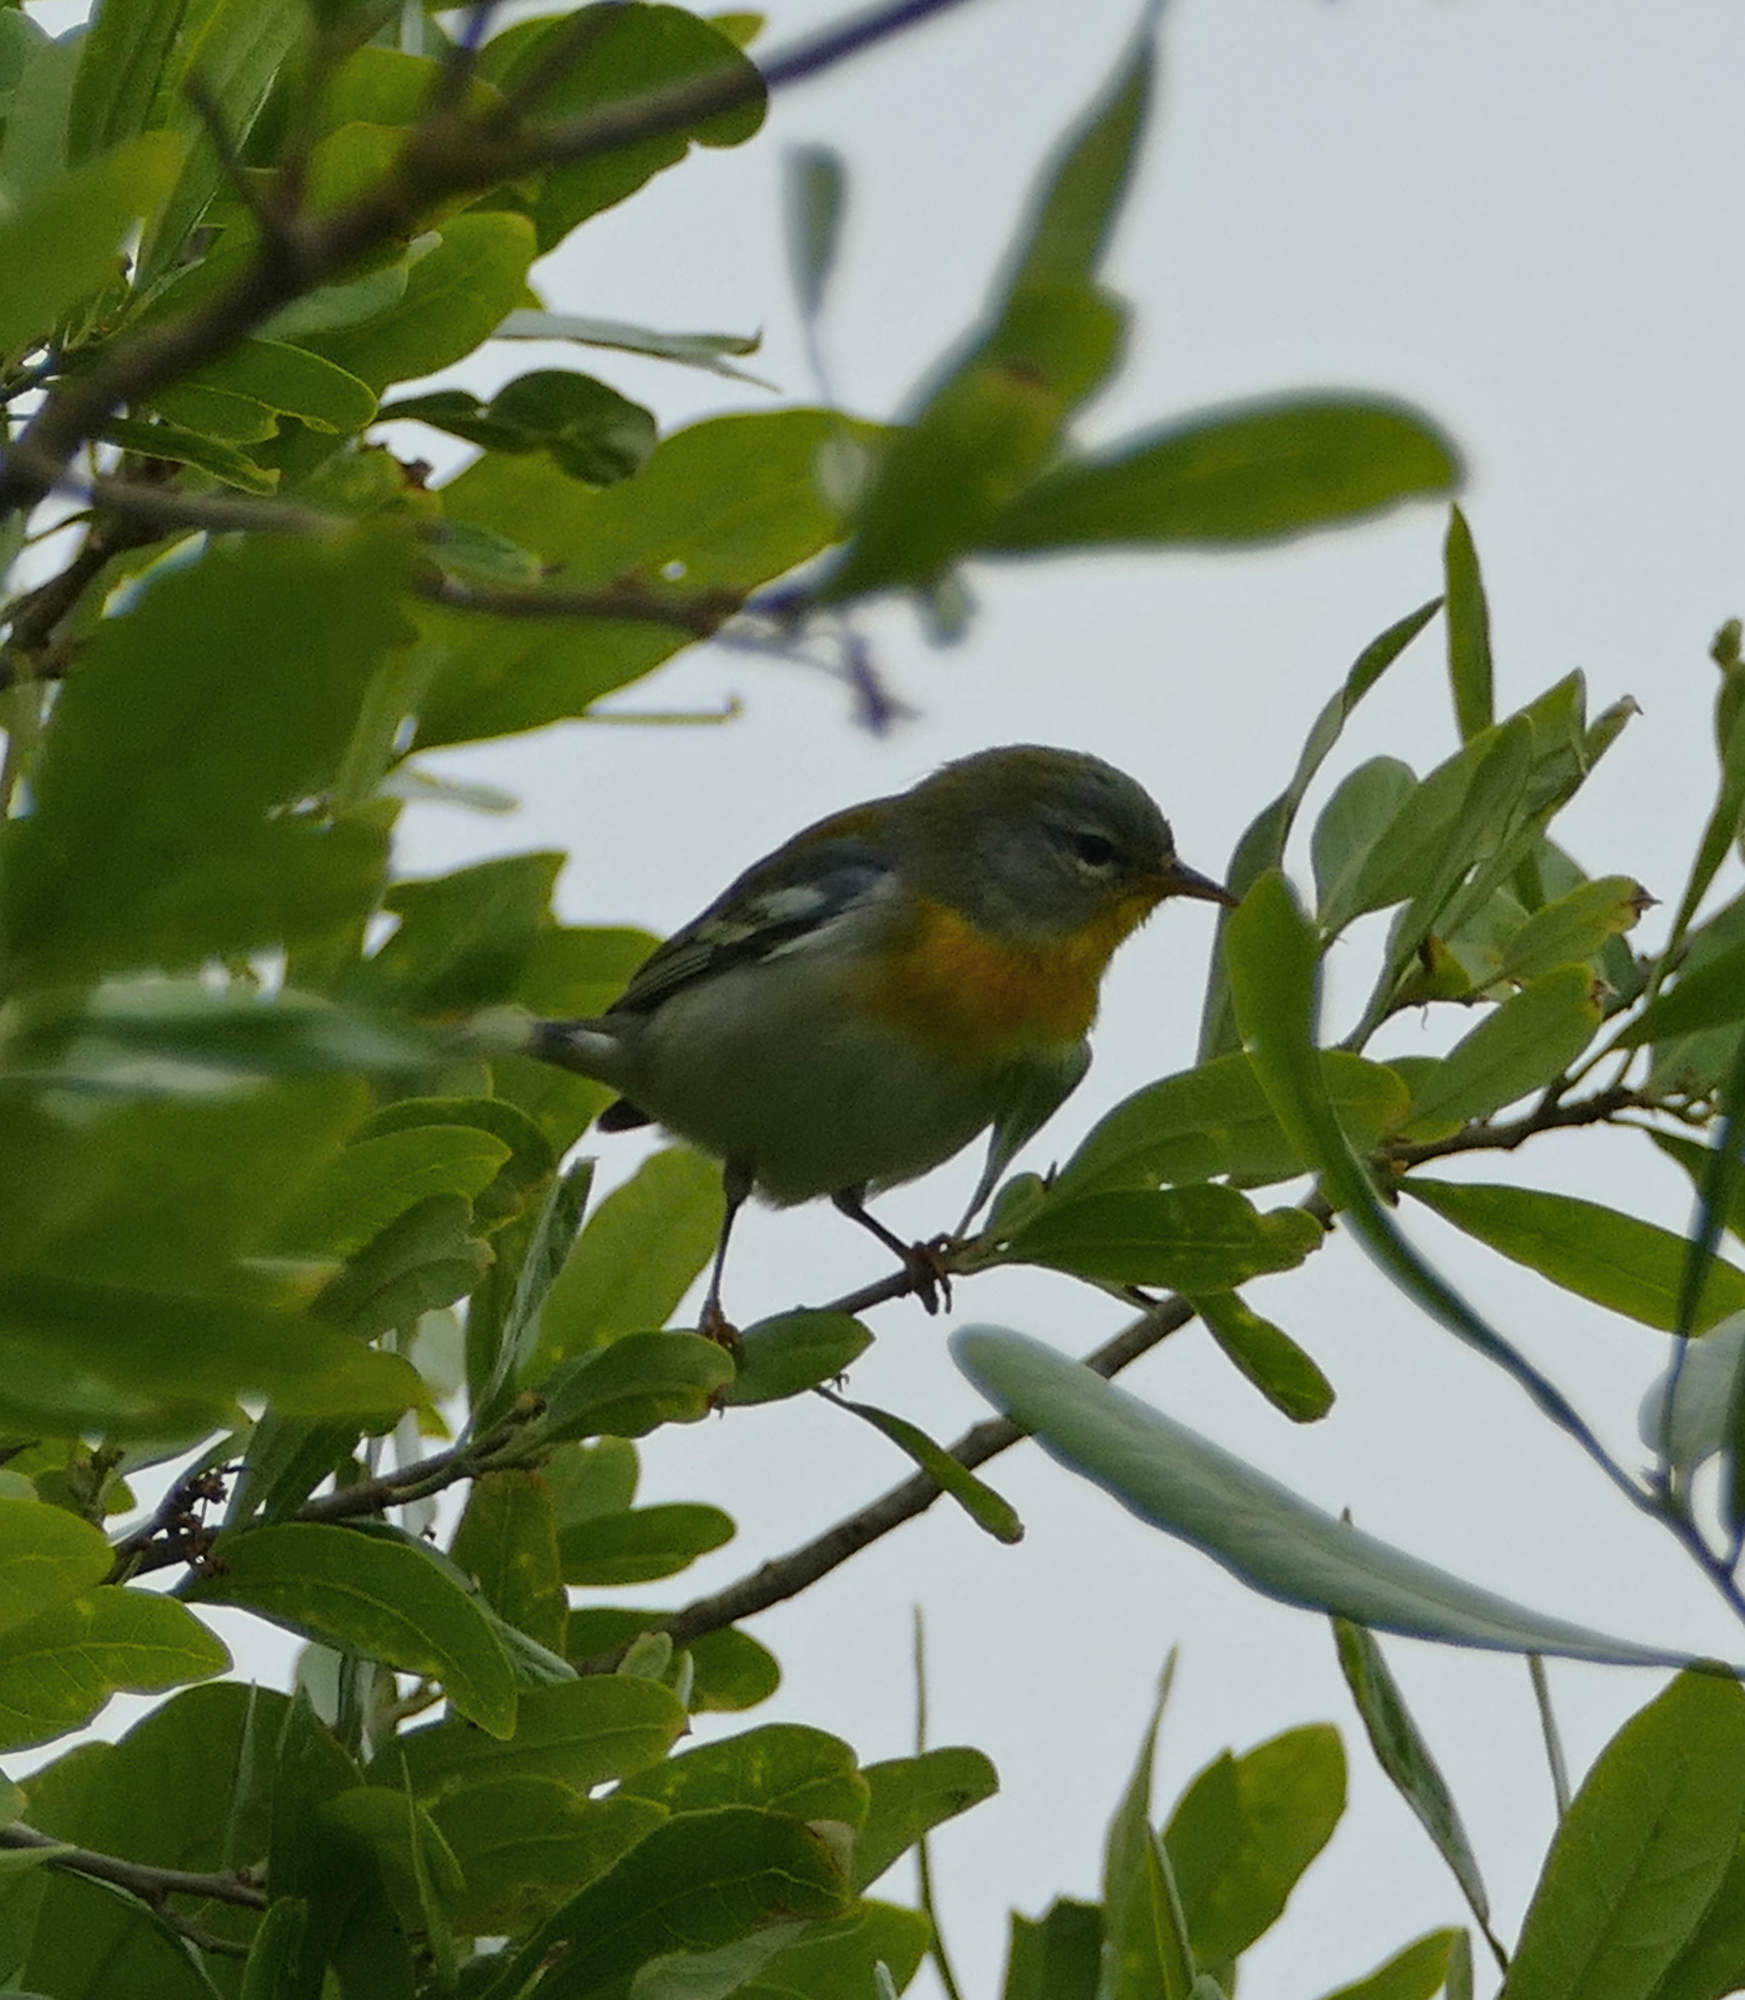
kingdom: Animalia
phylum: Chordata
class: Aves
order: Passeriformes
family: Parulidae
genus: Setophaga
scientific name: Setophaga americana
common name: Northern parula
